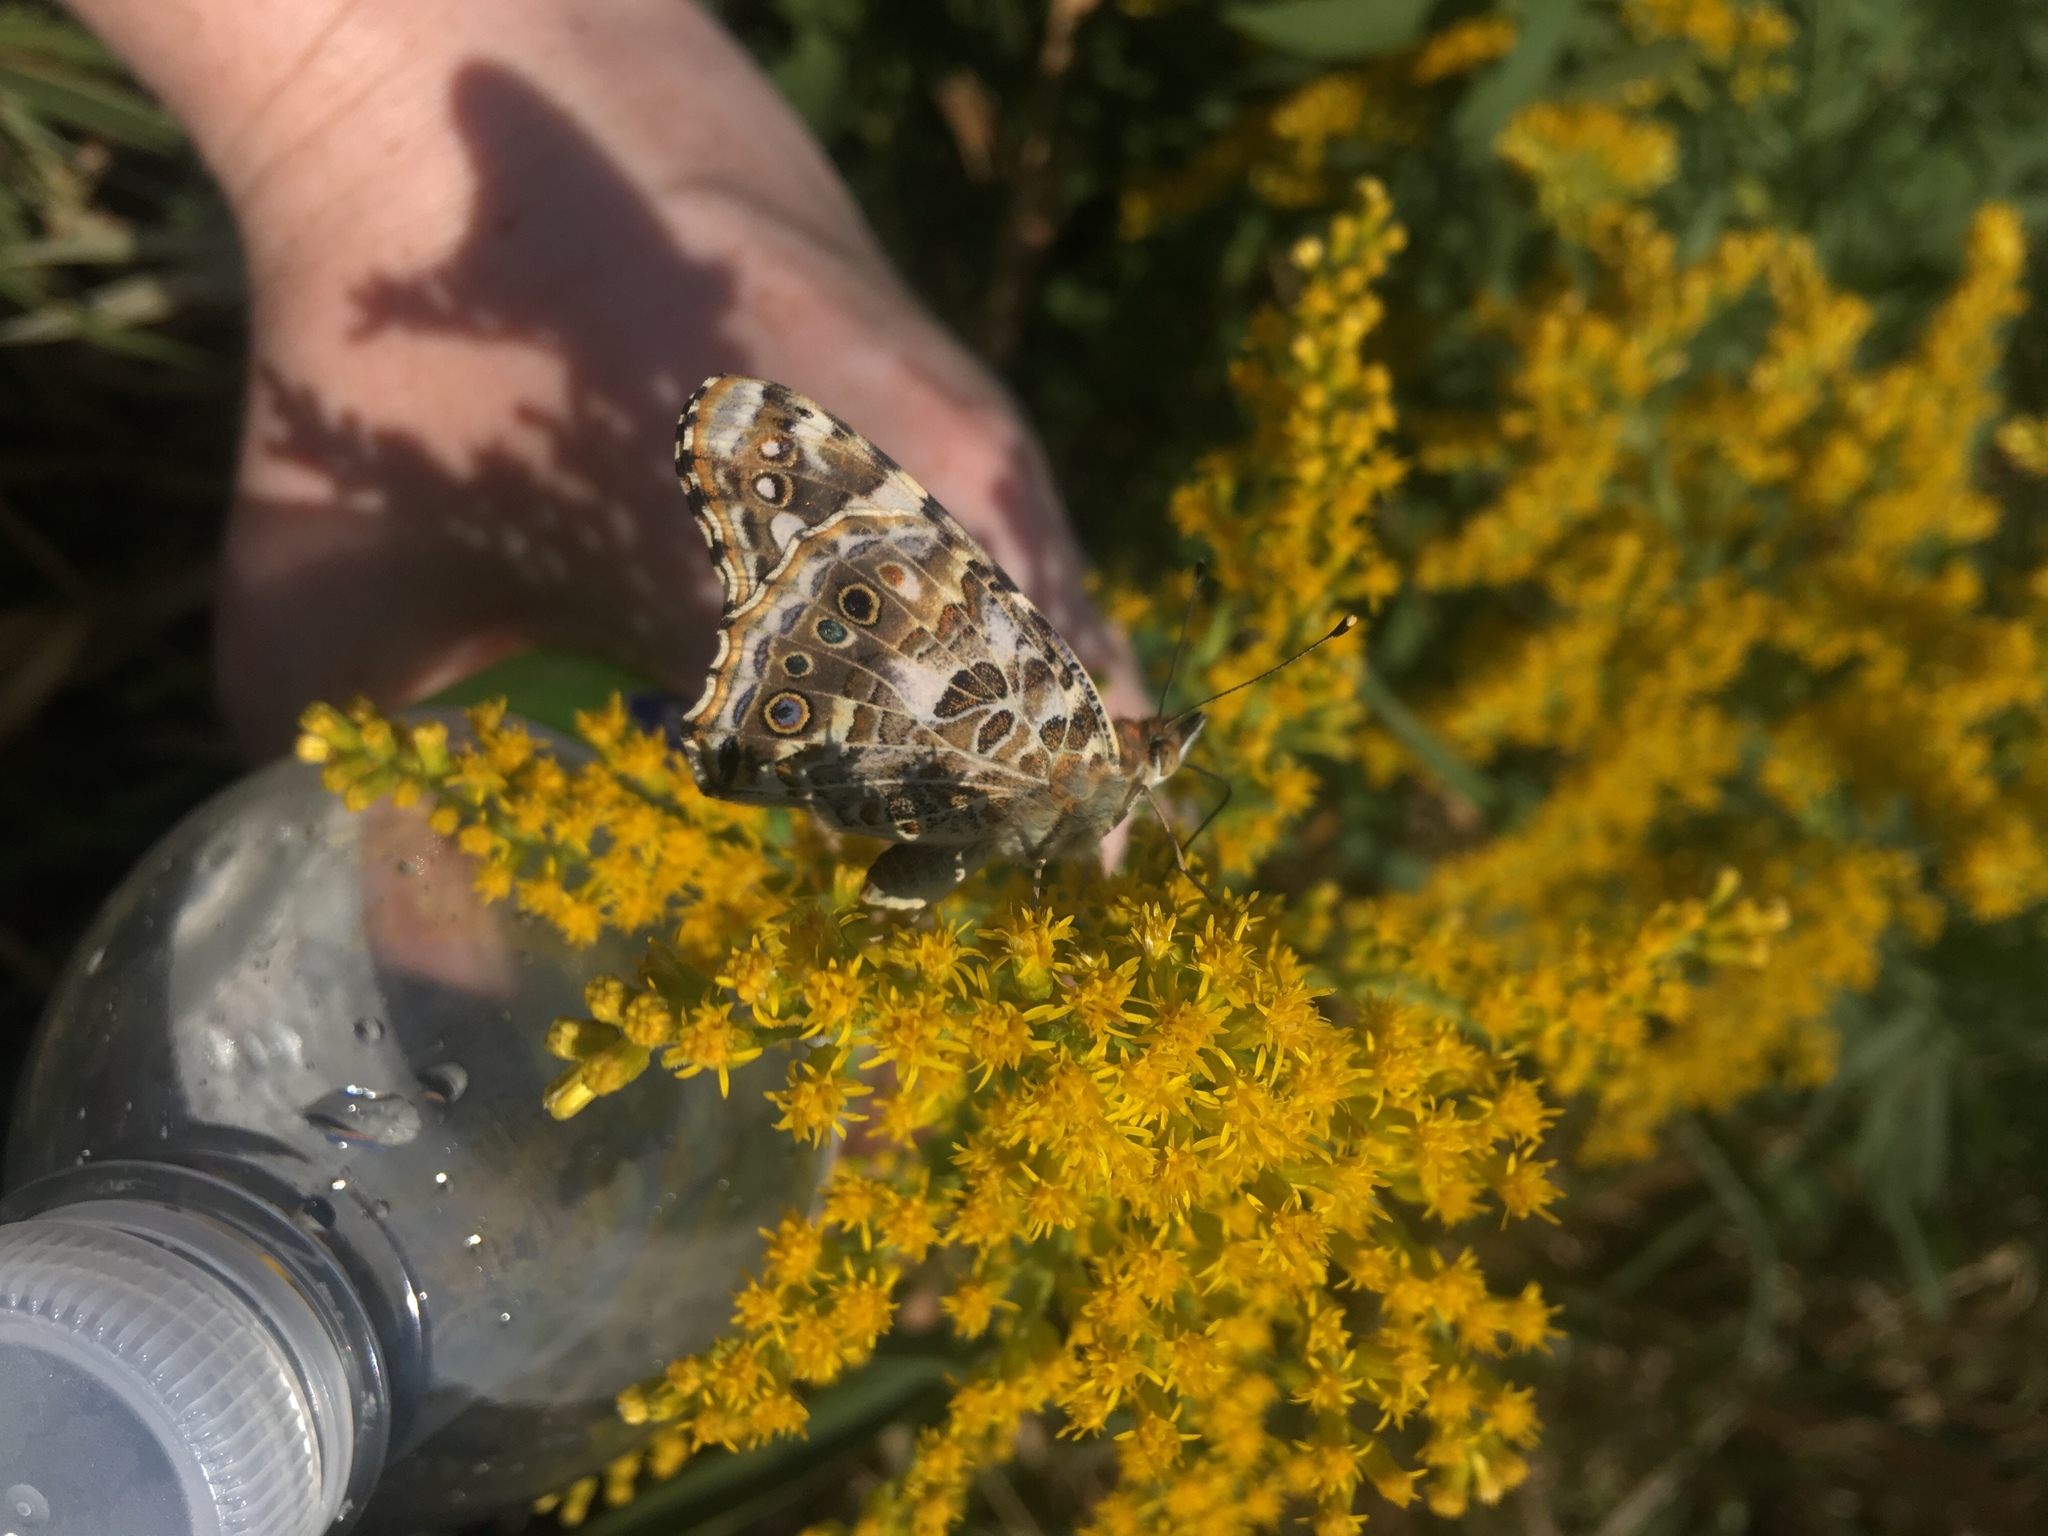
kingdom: Animalia
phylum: Arthropoda
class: Insecta
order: Lepidoptera
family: Nymphalidae
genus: Vanessa
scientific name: Vanessa cardui
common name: Painted lady
